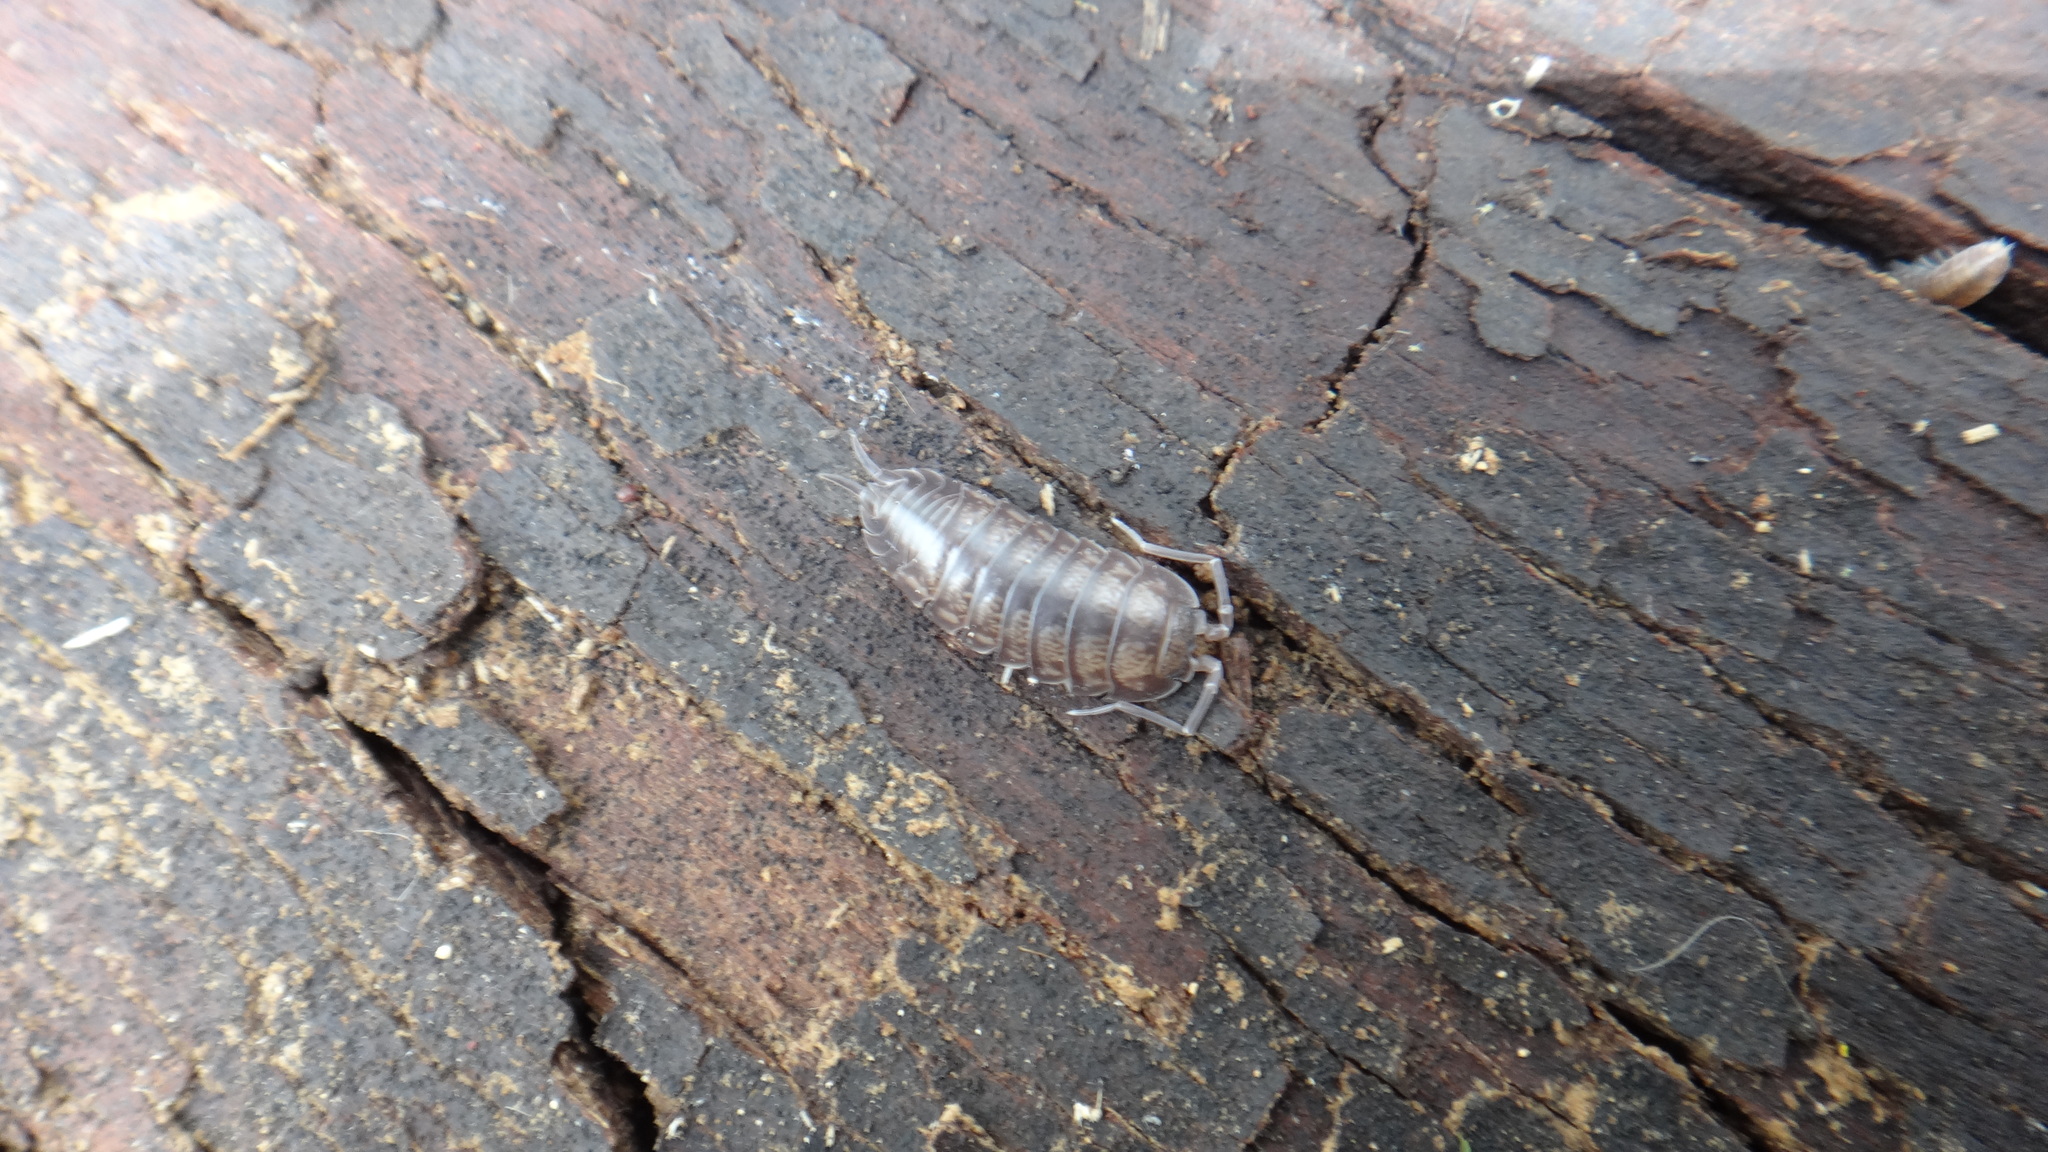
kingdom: Animalia
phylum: Arthropoda
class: Malacostraca
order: Isopoda
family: Cylisticidae
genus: Cylisticus
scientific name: Cylisticus convexus
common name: Curly woodlouse
